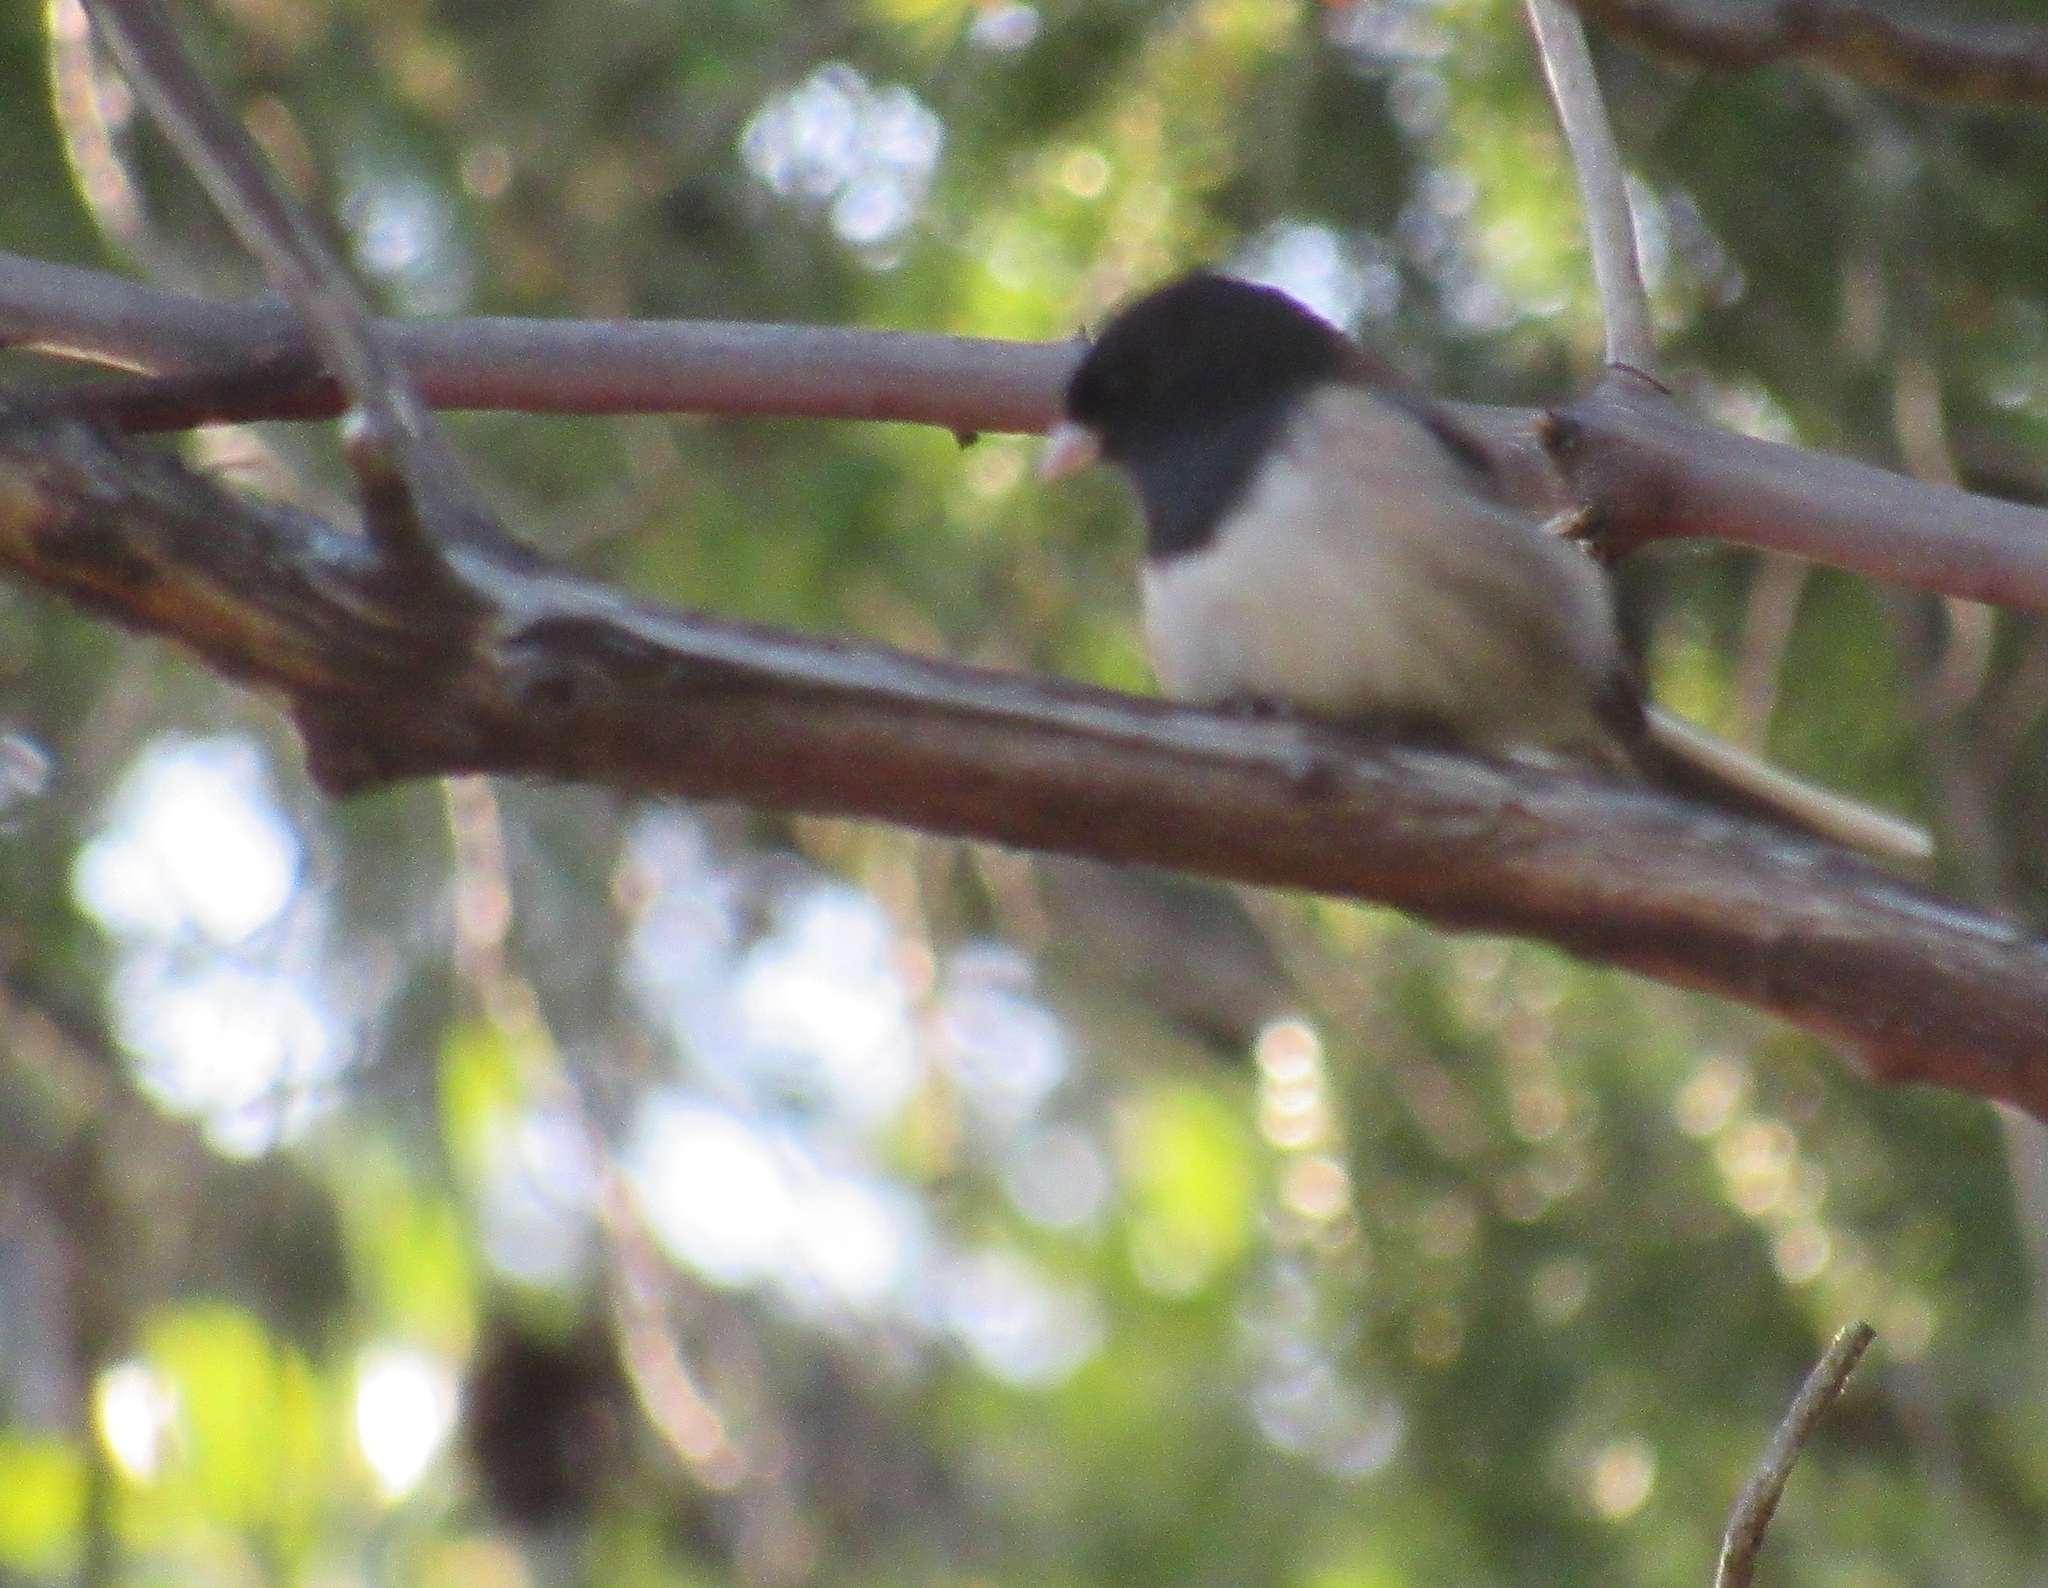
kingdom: Animalia
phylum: Chordata
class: Aves
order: Passeriformes
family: Passerellidae
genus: Junco
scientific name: Junco hyemalis
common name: Dark-eyed junco
